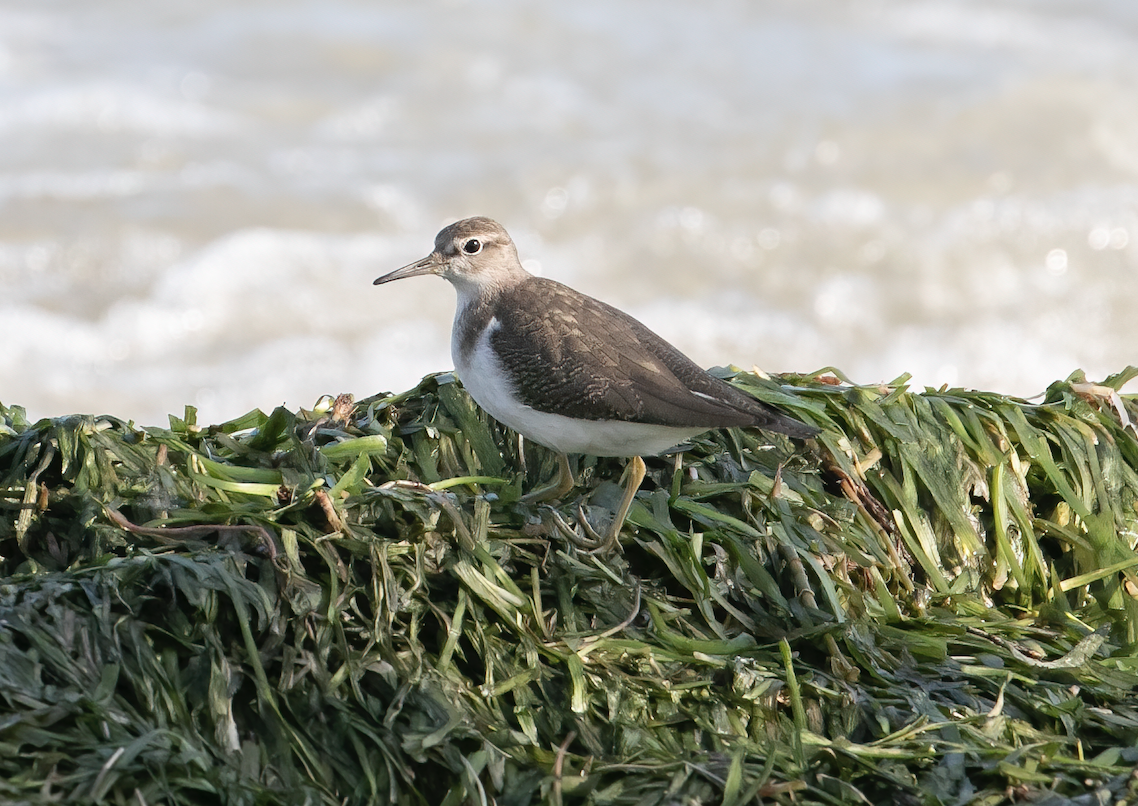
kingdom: Animalia
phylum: Chordata
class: Aves
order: Charadriiformes
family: Scolopacidae
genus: Actitis
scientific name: Actitis hypoleucos
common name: Common sandpiper
